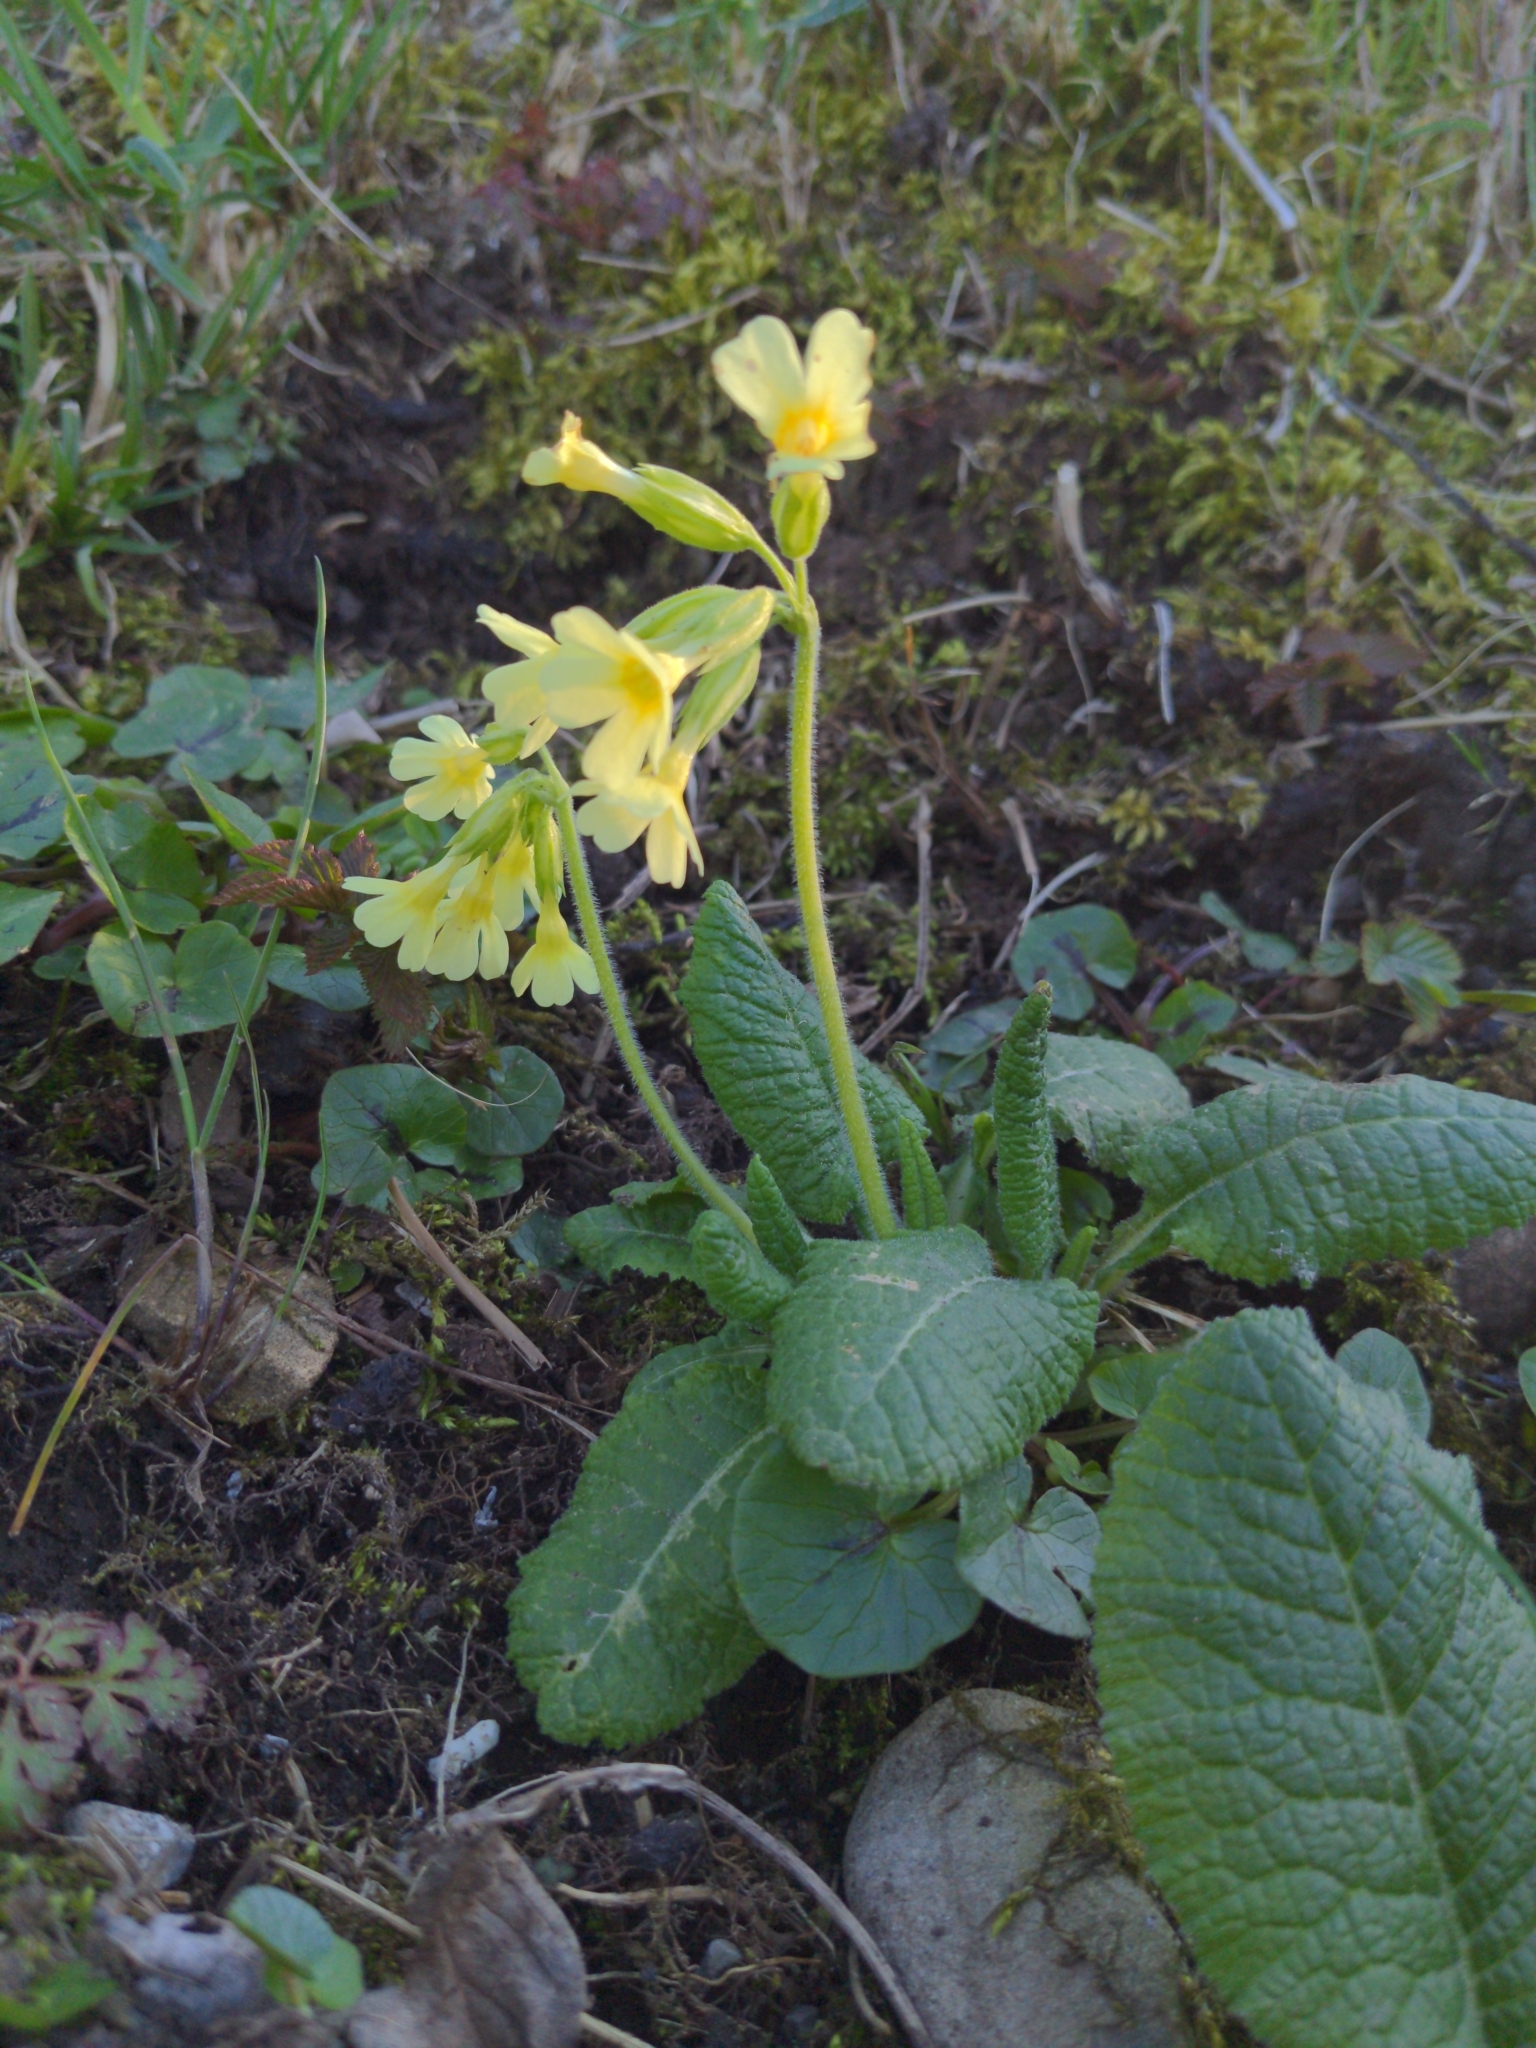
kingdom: Plantae
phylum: Tracheophyta
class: Magnoliopsida
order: Ericales
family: Primulaceae
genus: Primula
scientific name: Primula elatior
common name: Oxlip
